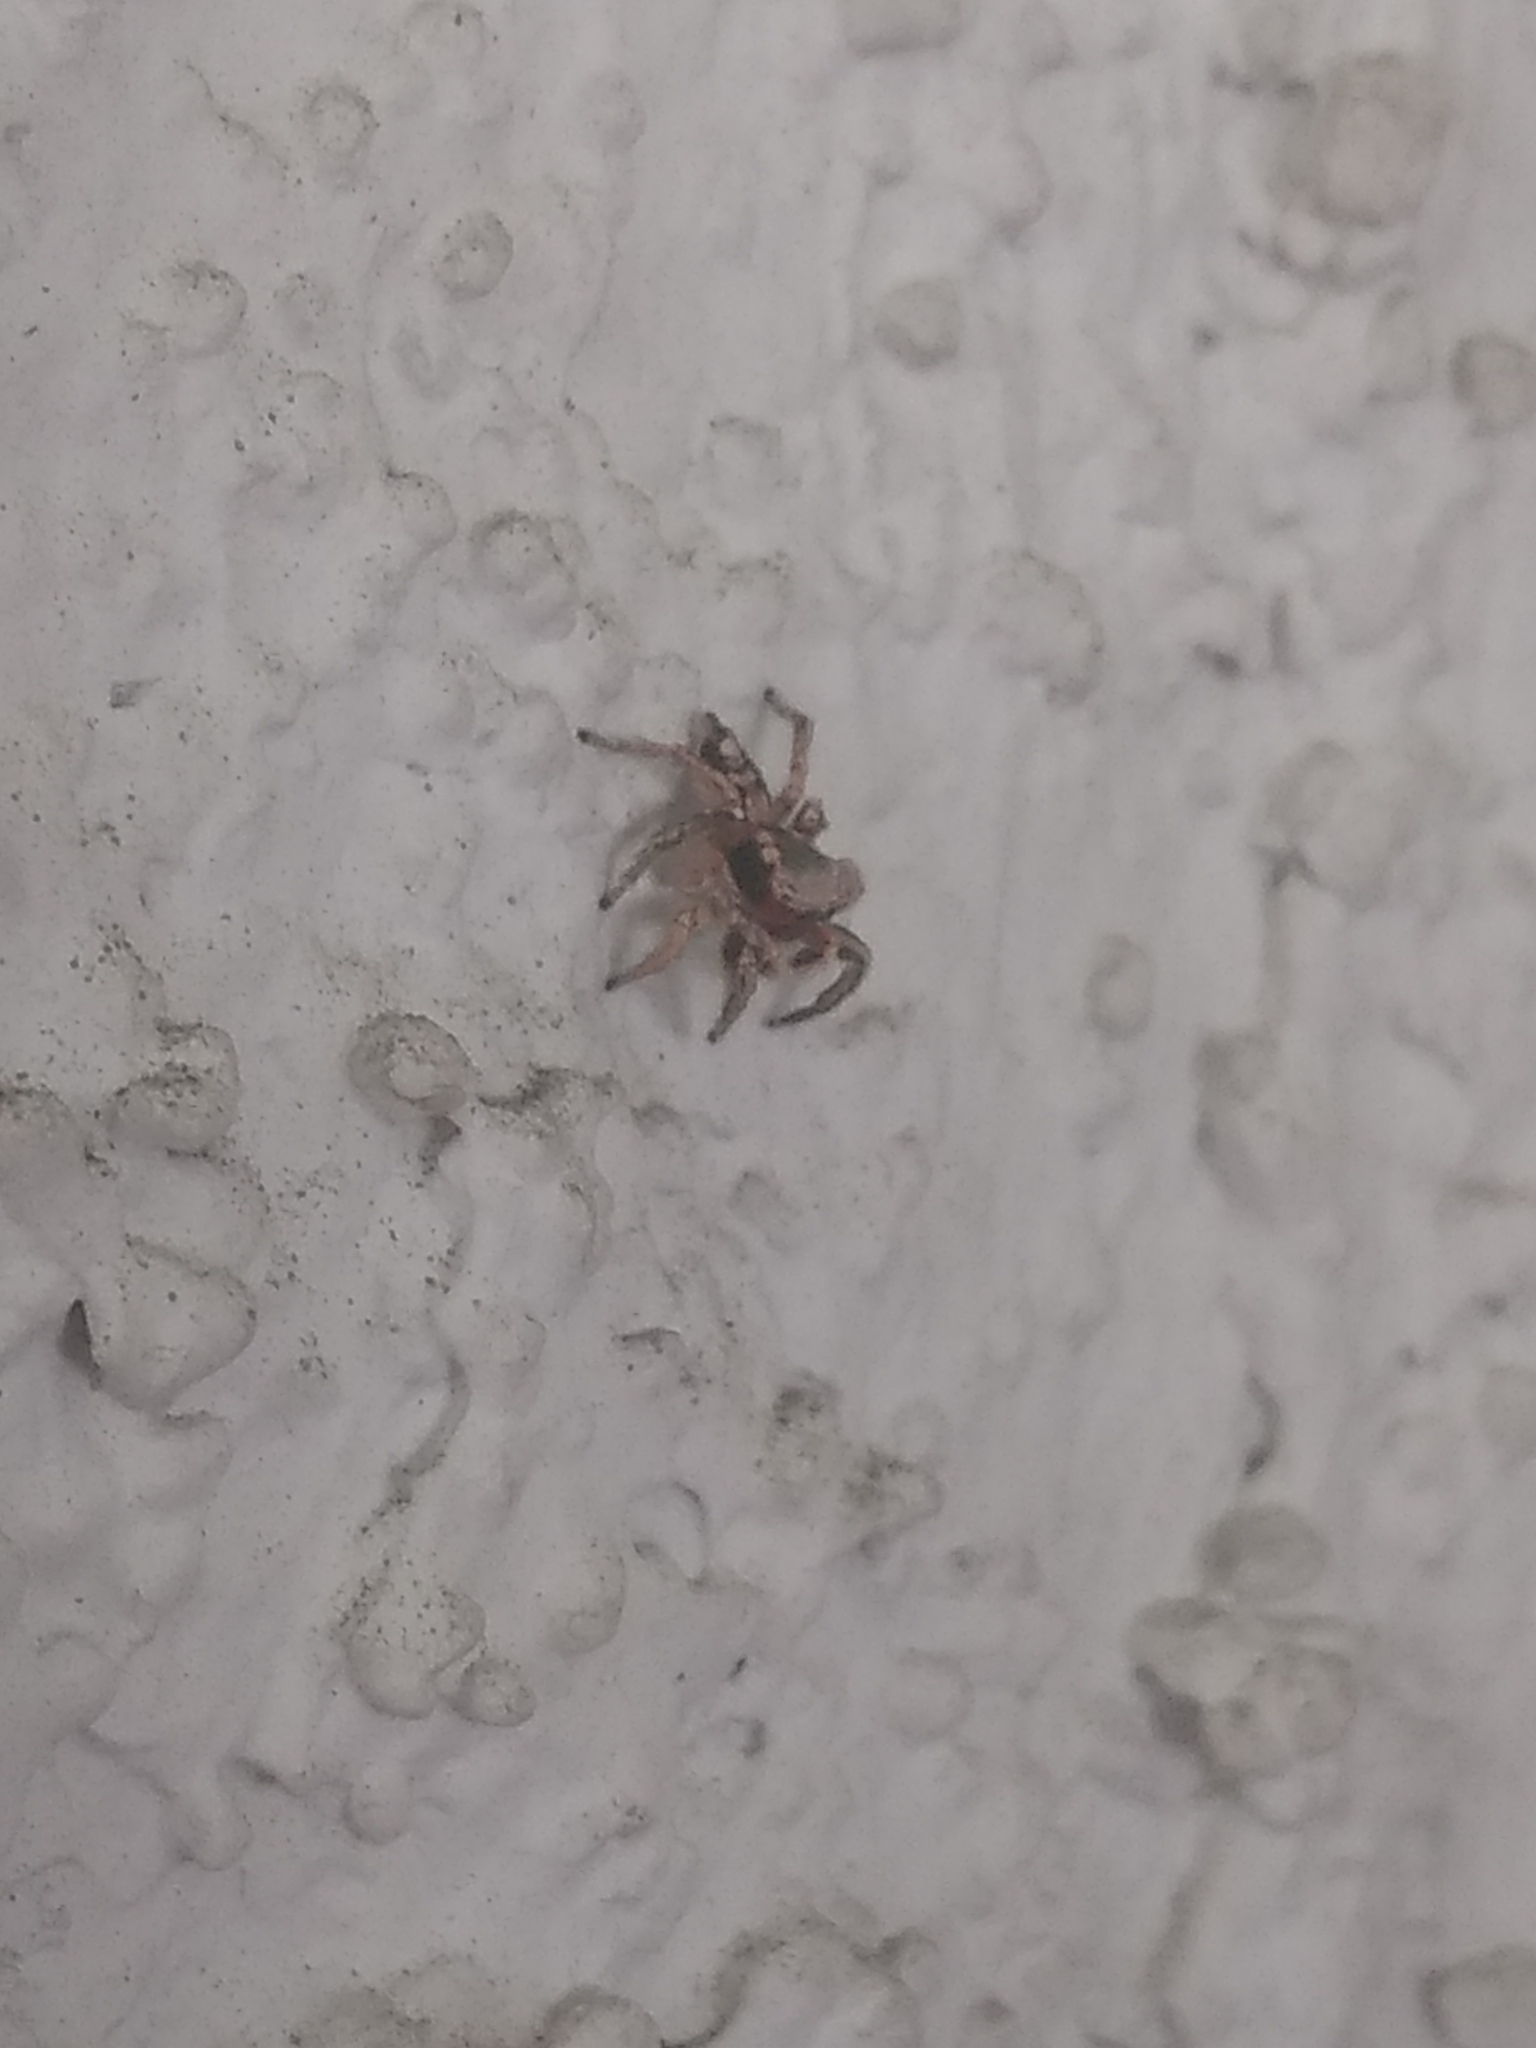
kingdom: Animalia
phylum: Arthropoda
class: Arachnida
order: Araneae
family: Salticidae
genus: Habronattus
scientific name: Habronattus pyrrithrix
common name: Jumping spider
